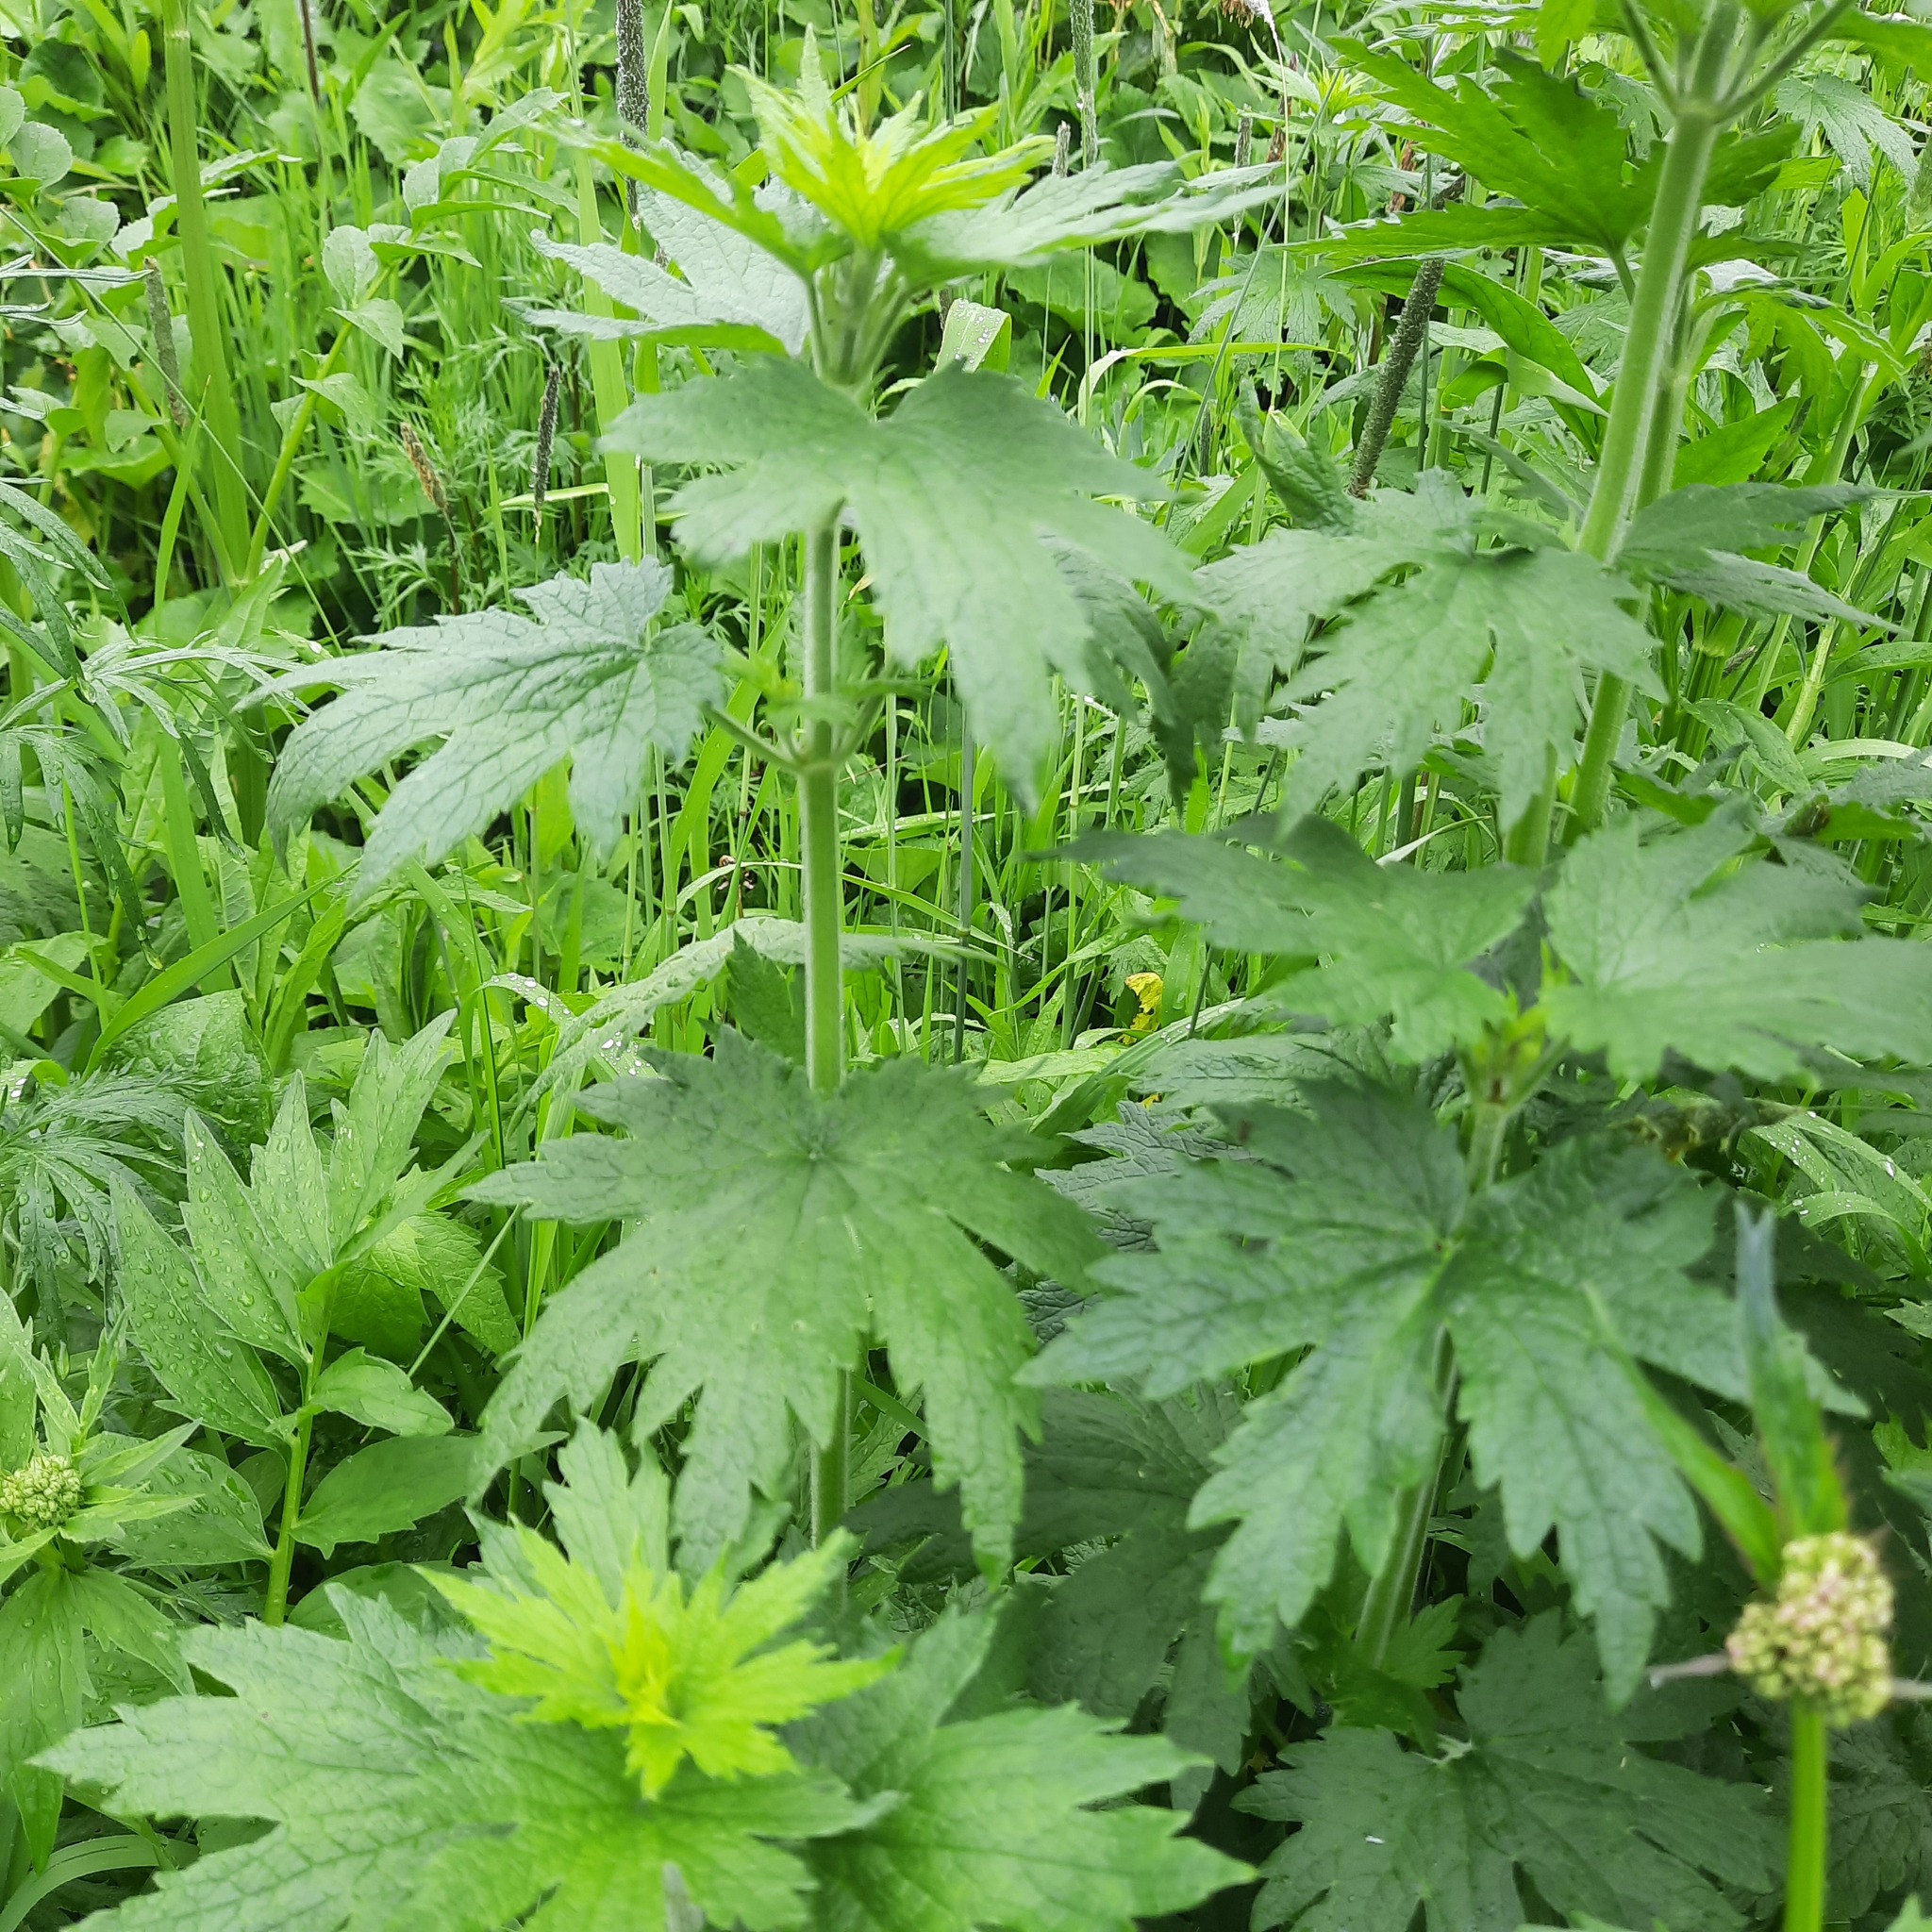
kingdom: Plantae
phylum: Tracheophyta
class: Magnoliopsida
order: Lamiales
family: Lamiaceae
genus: Leonurus
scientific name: Leonurus quinquelobatus
